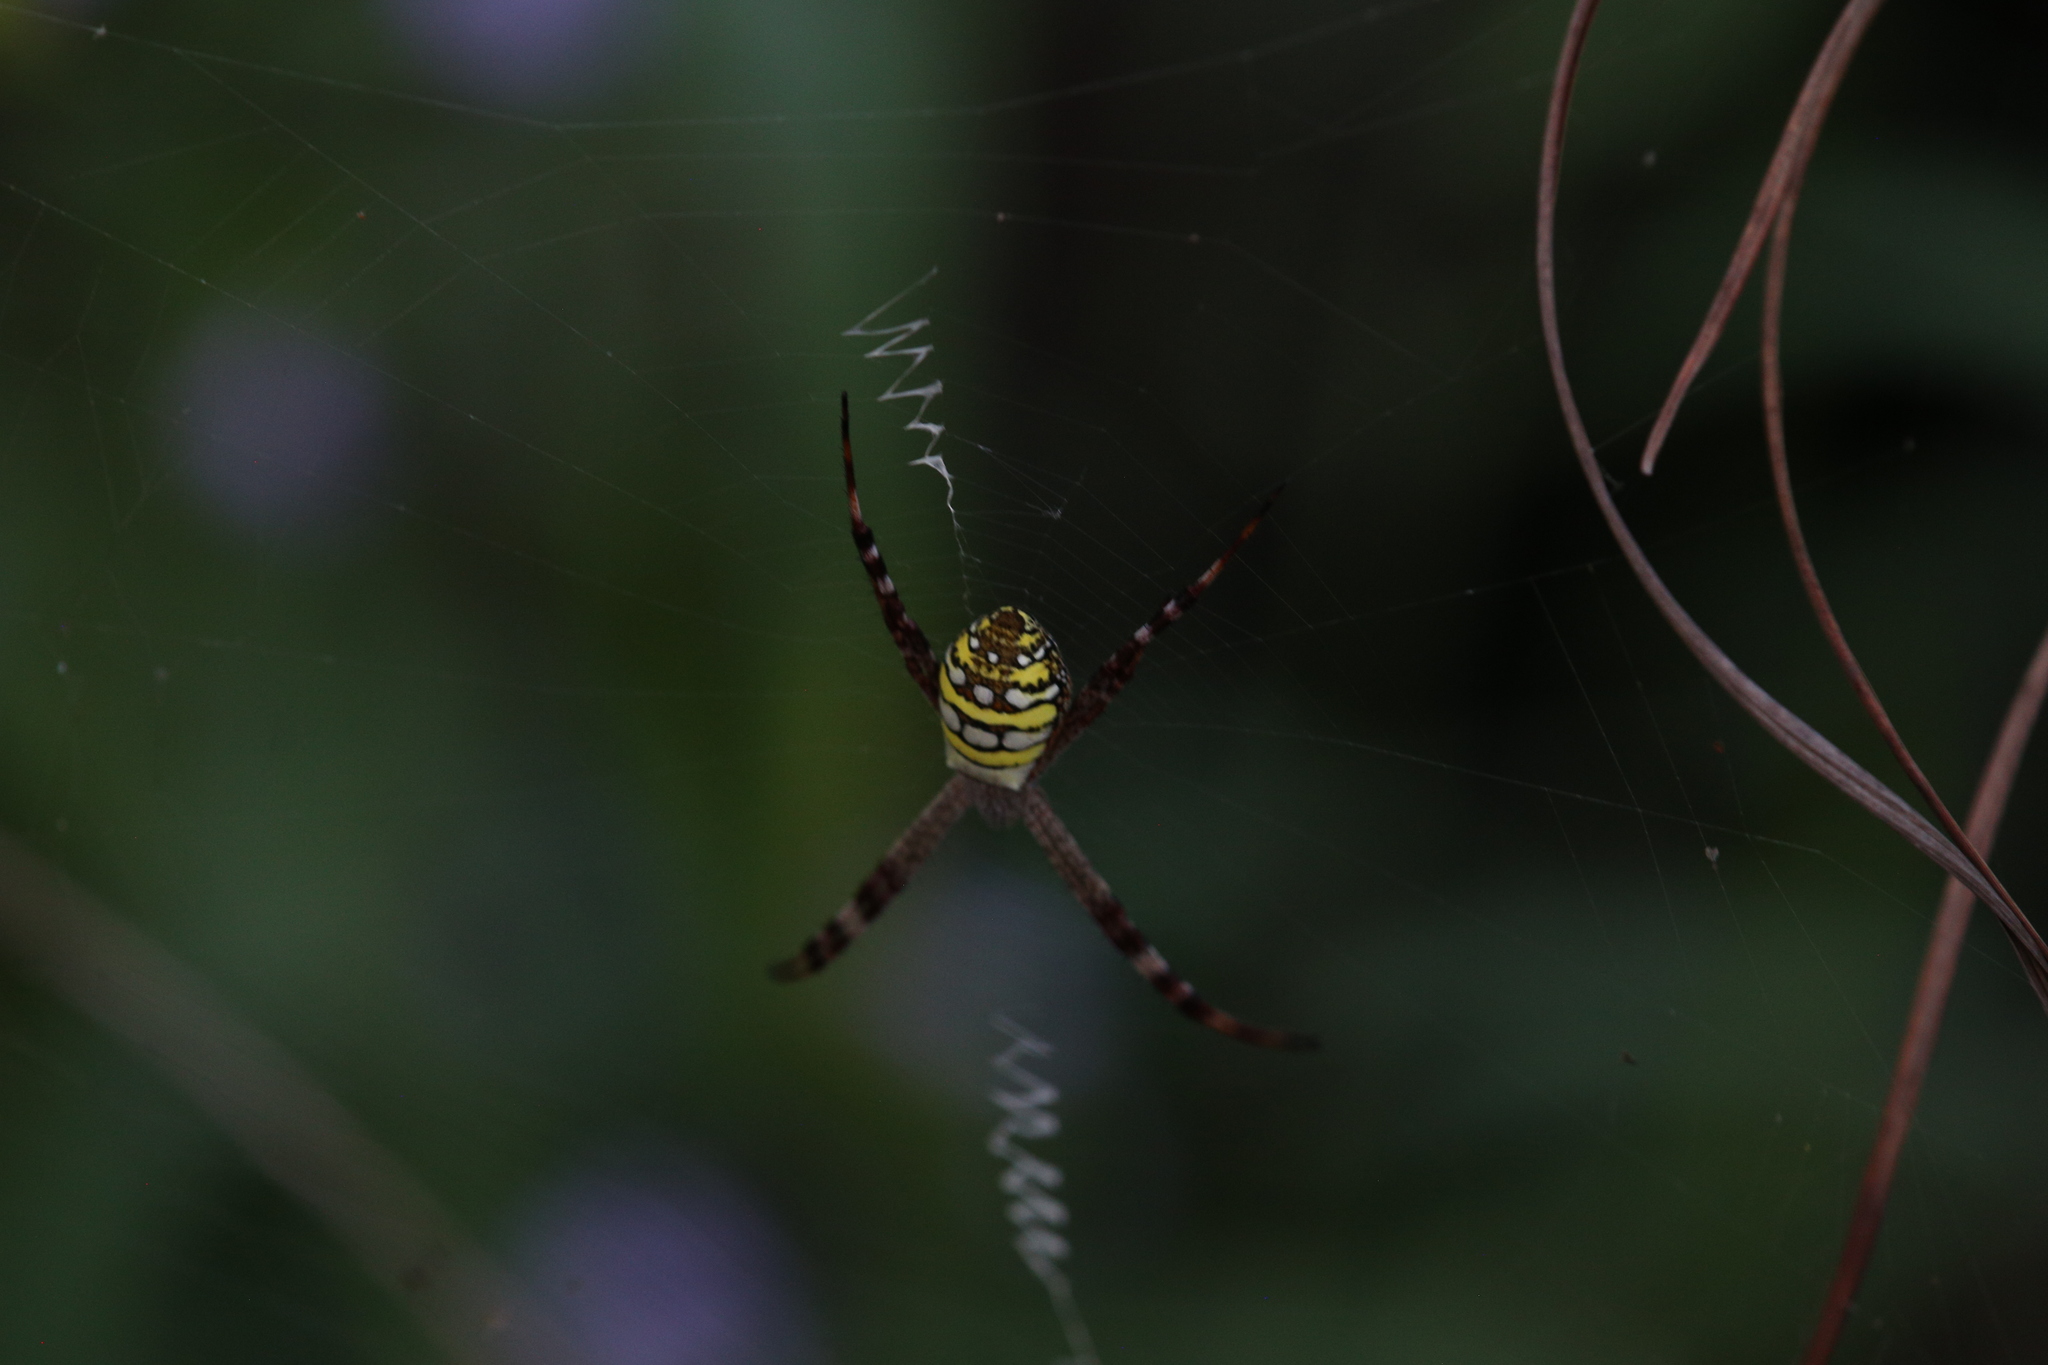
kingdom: Animalia
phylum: Arthropoda
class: Arachnida
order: Araneae
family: Araneidae
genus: Argiope
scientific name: Argiope picta
